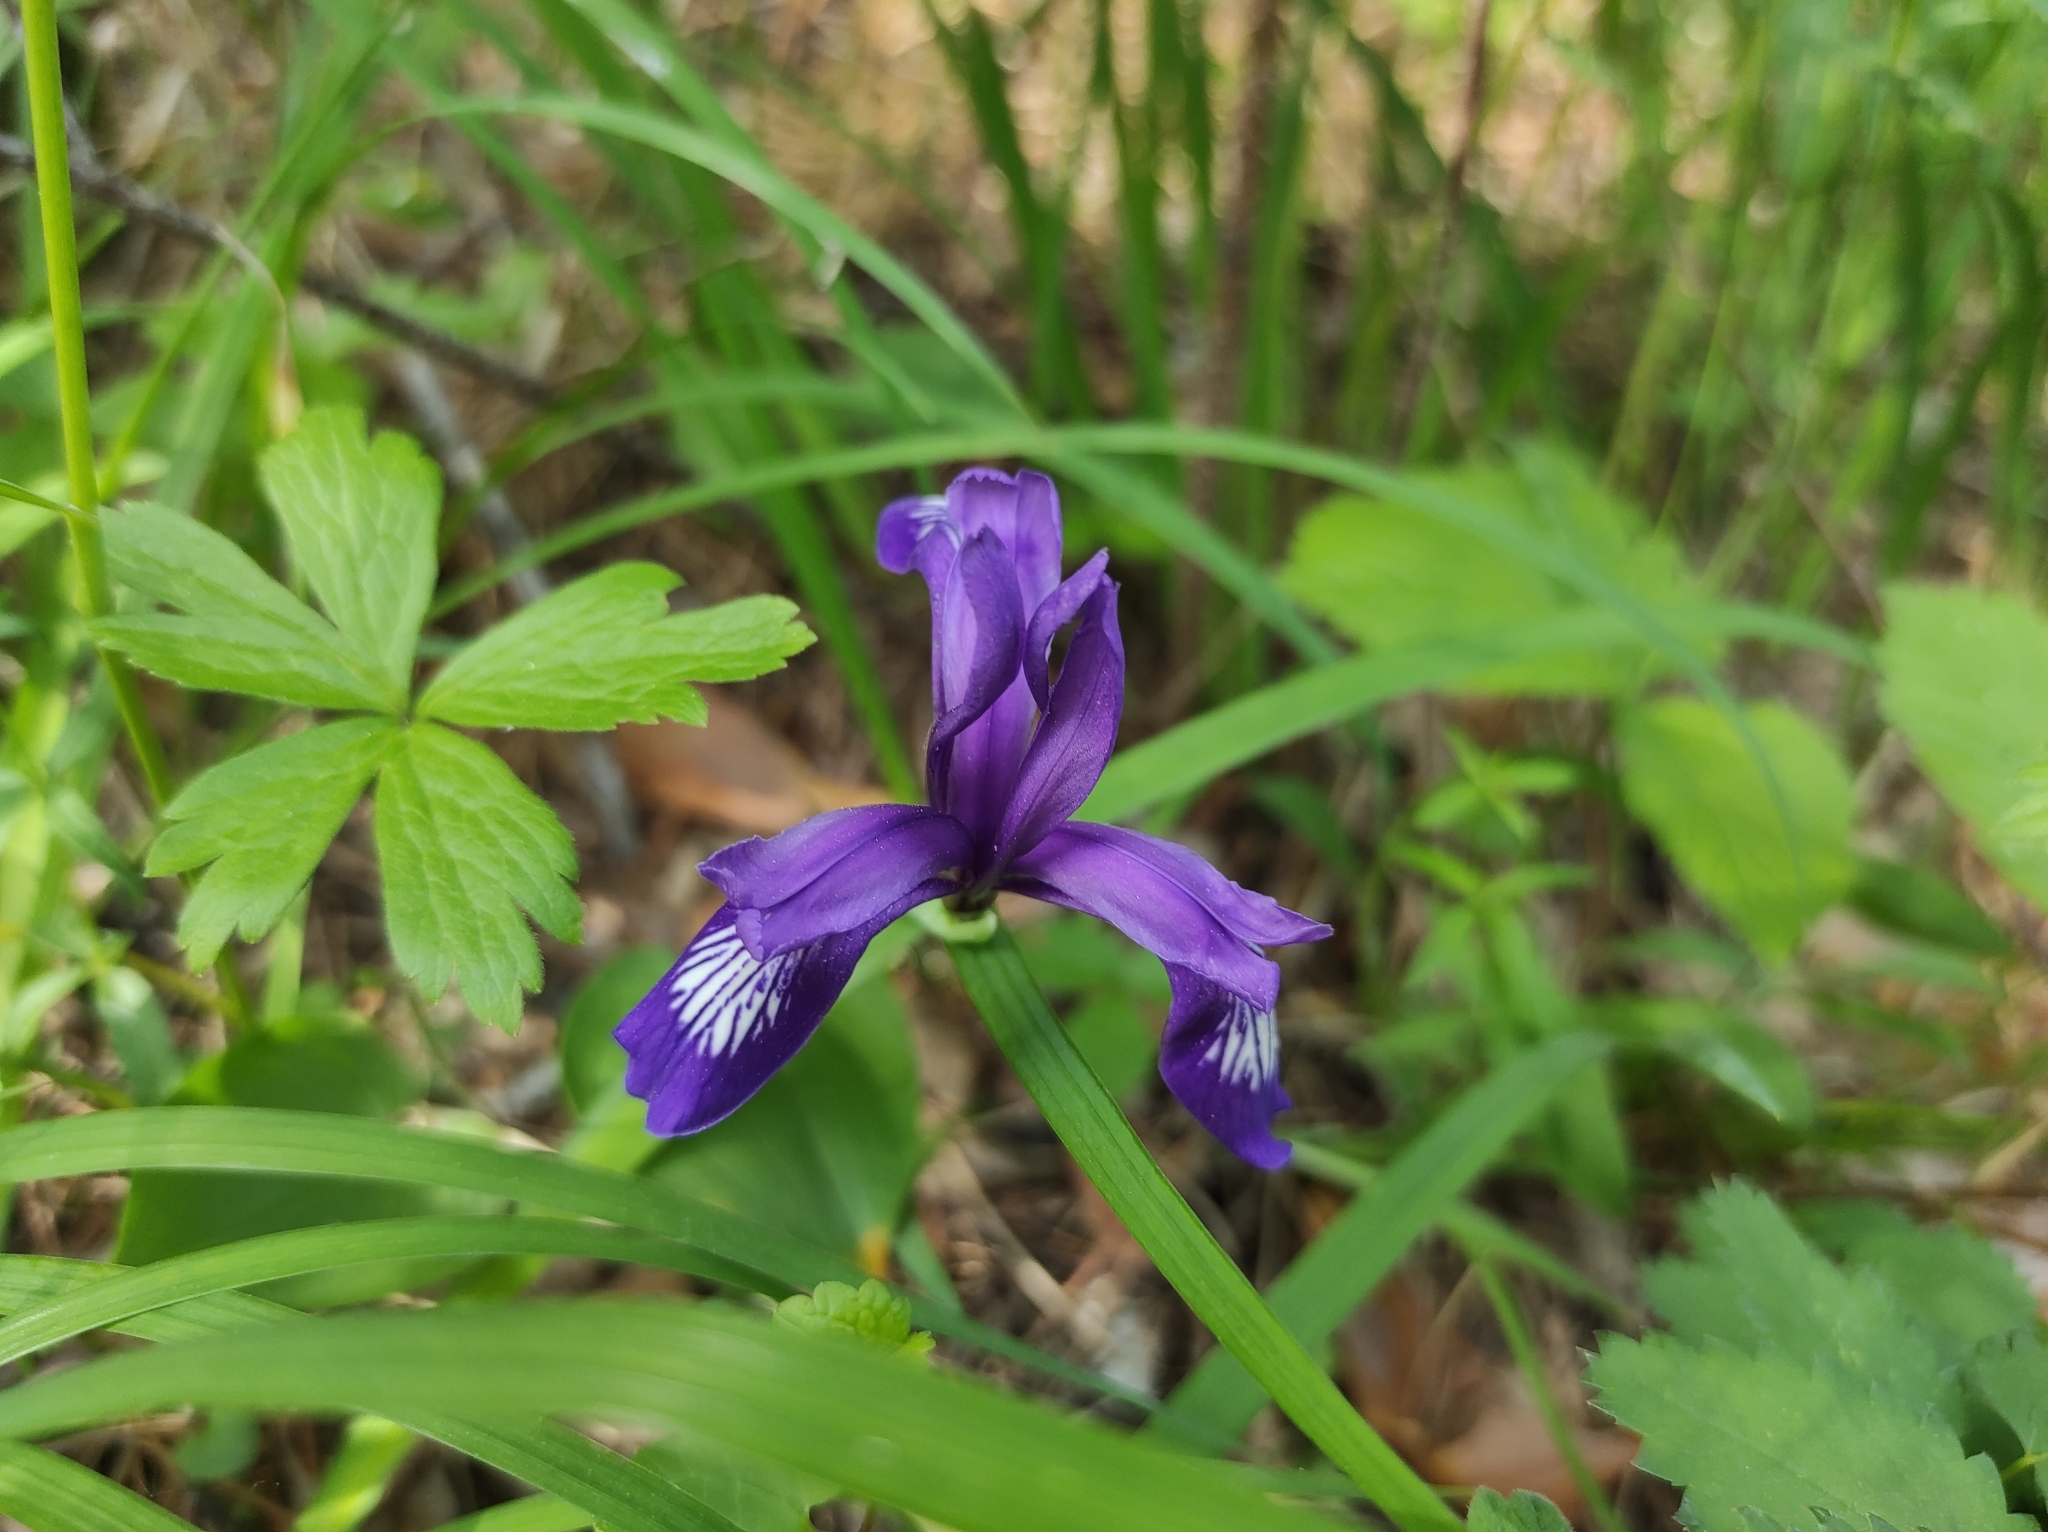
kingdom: Plantae
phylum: Tracheophyta
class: Liliopsida
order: Asparagales
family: Iridaceae
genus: Iris
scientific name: Iris ruthenica
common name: Purple-bract iris
